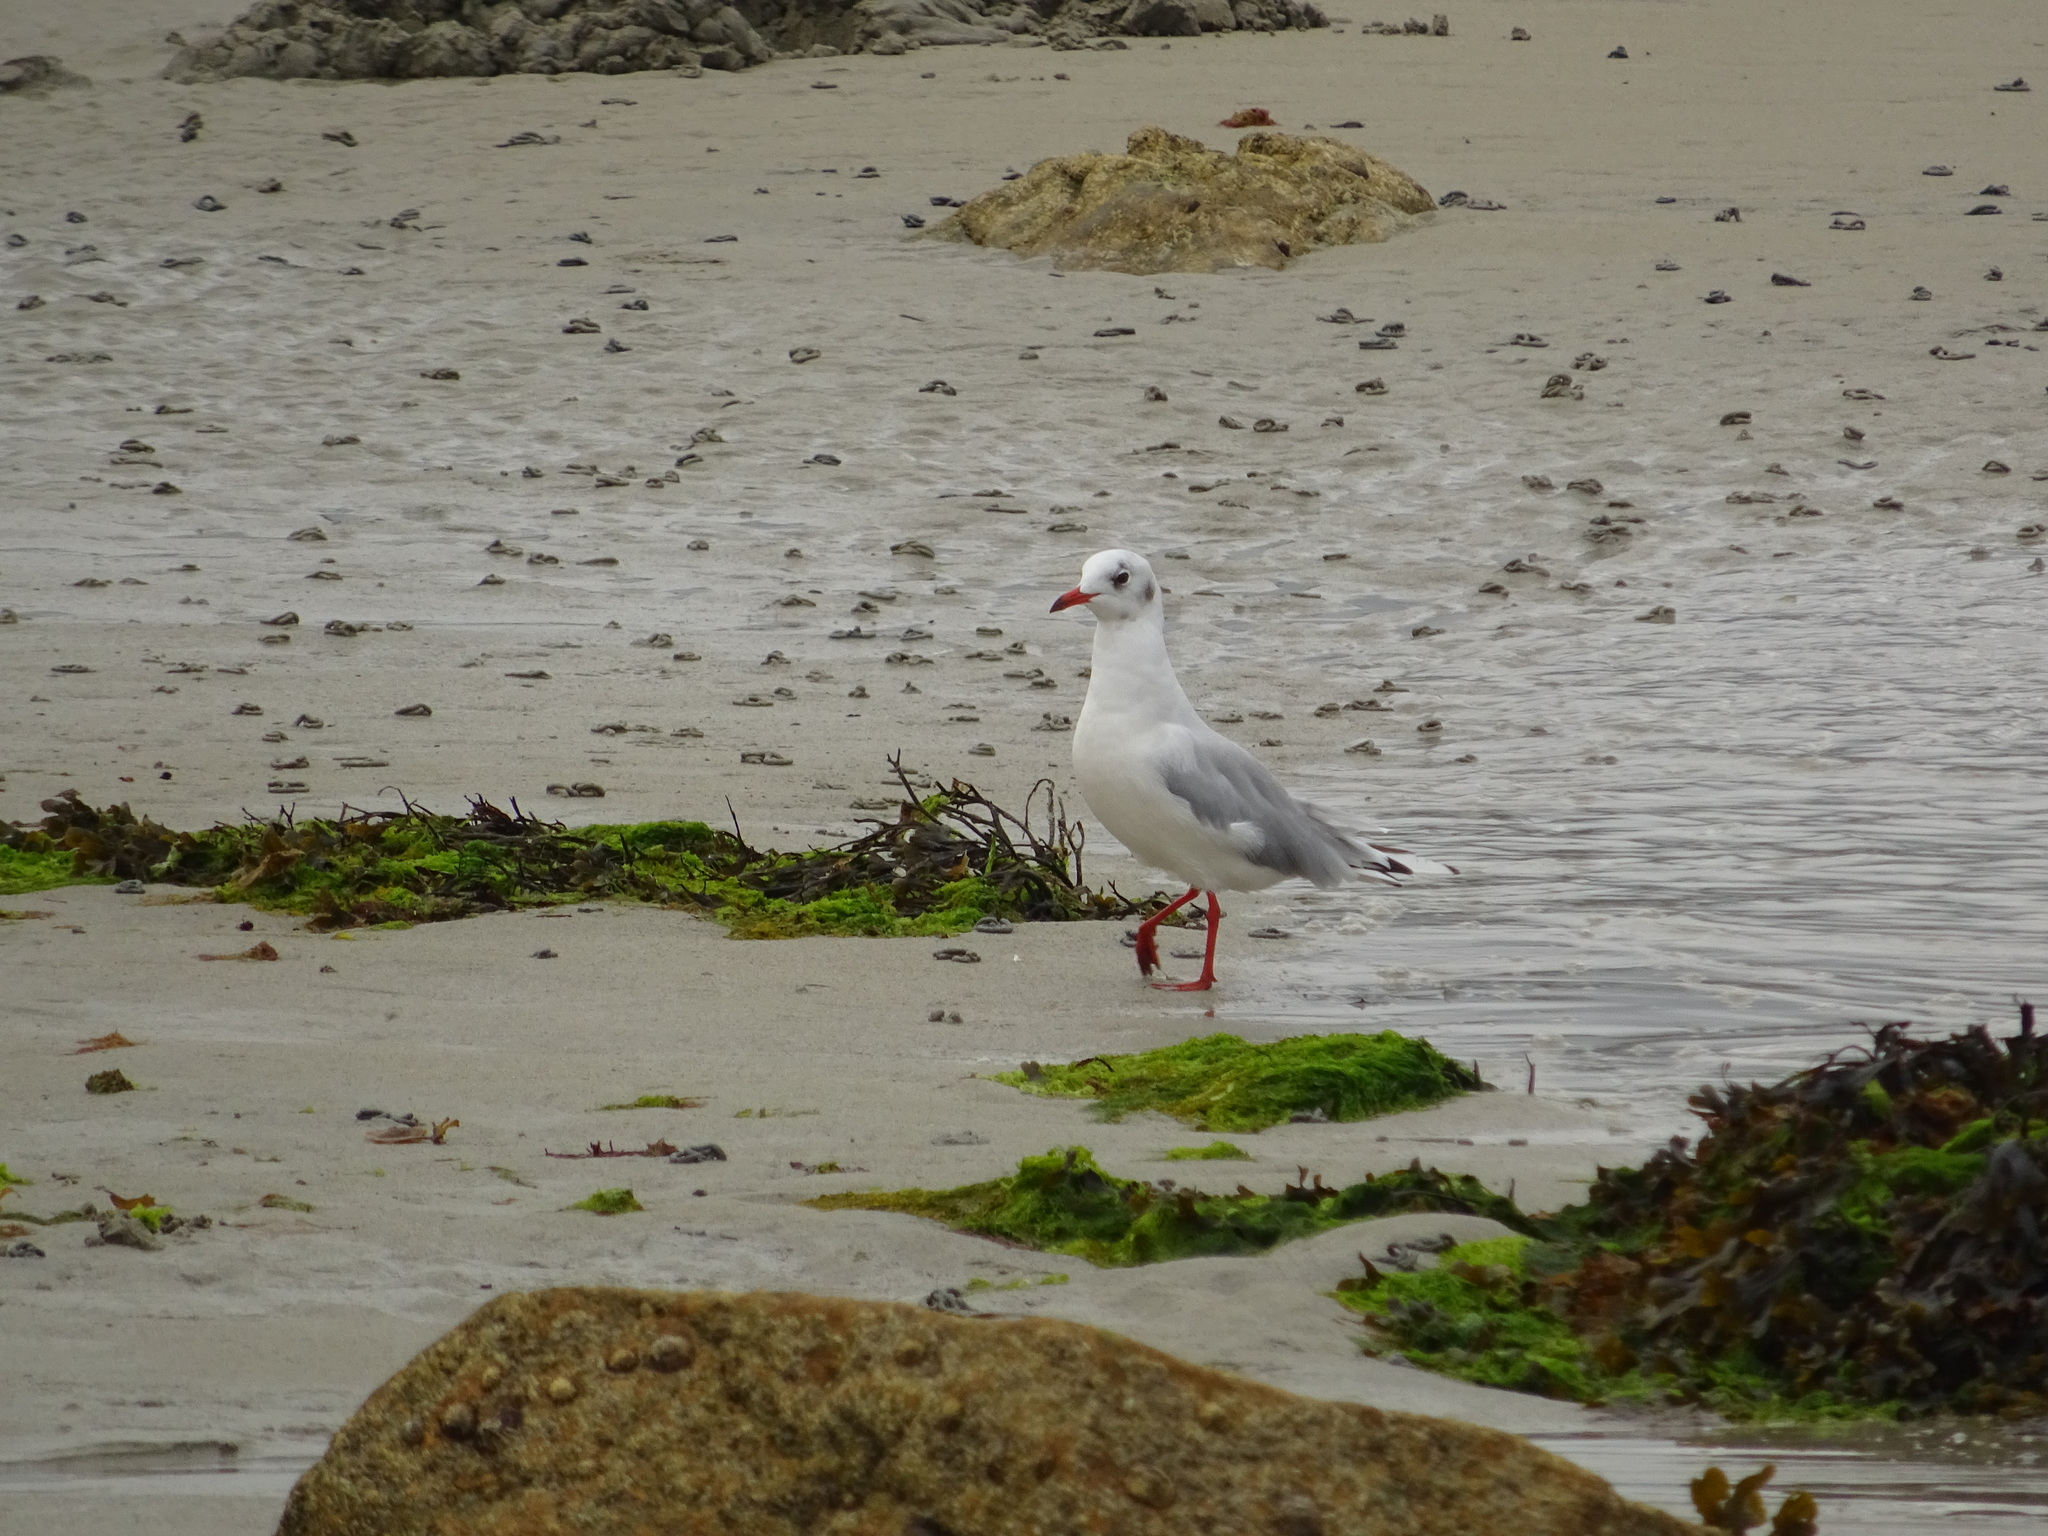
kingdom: Animalia
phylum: Chordata
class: Aves
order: Charadriiformes
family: Laridae
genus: Chroicocephalus
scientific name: Chroicocephalus ridibundus
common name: Black-headed gull
